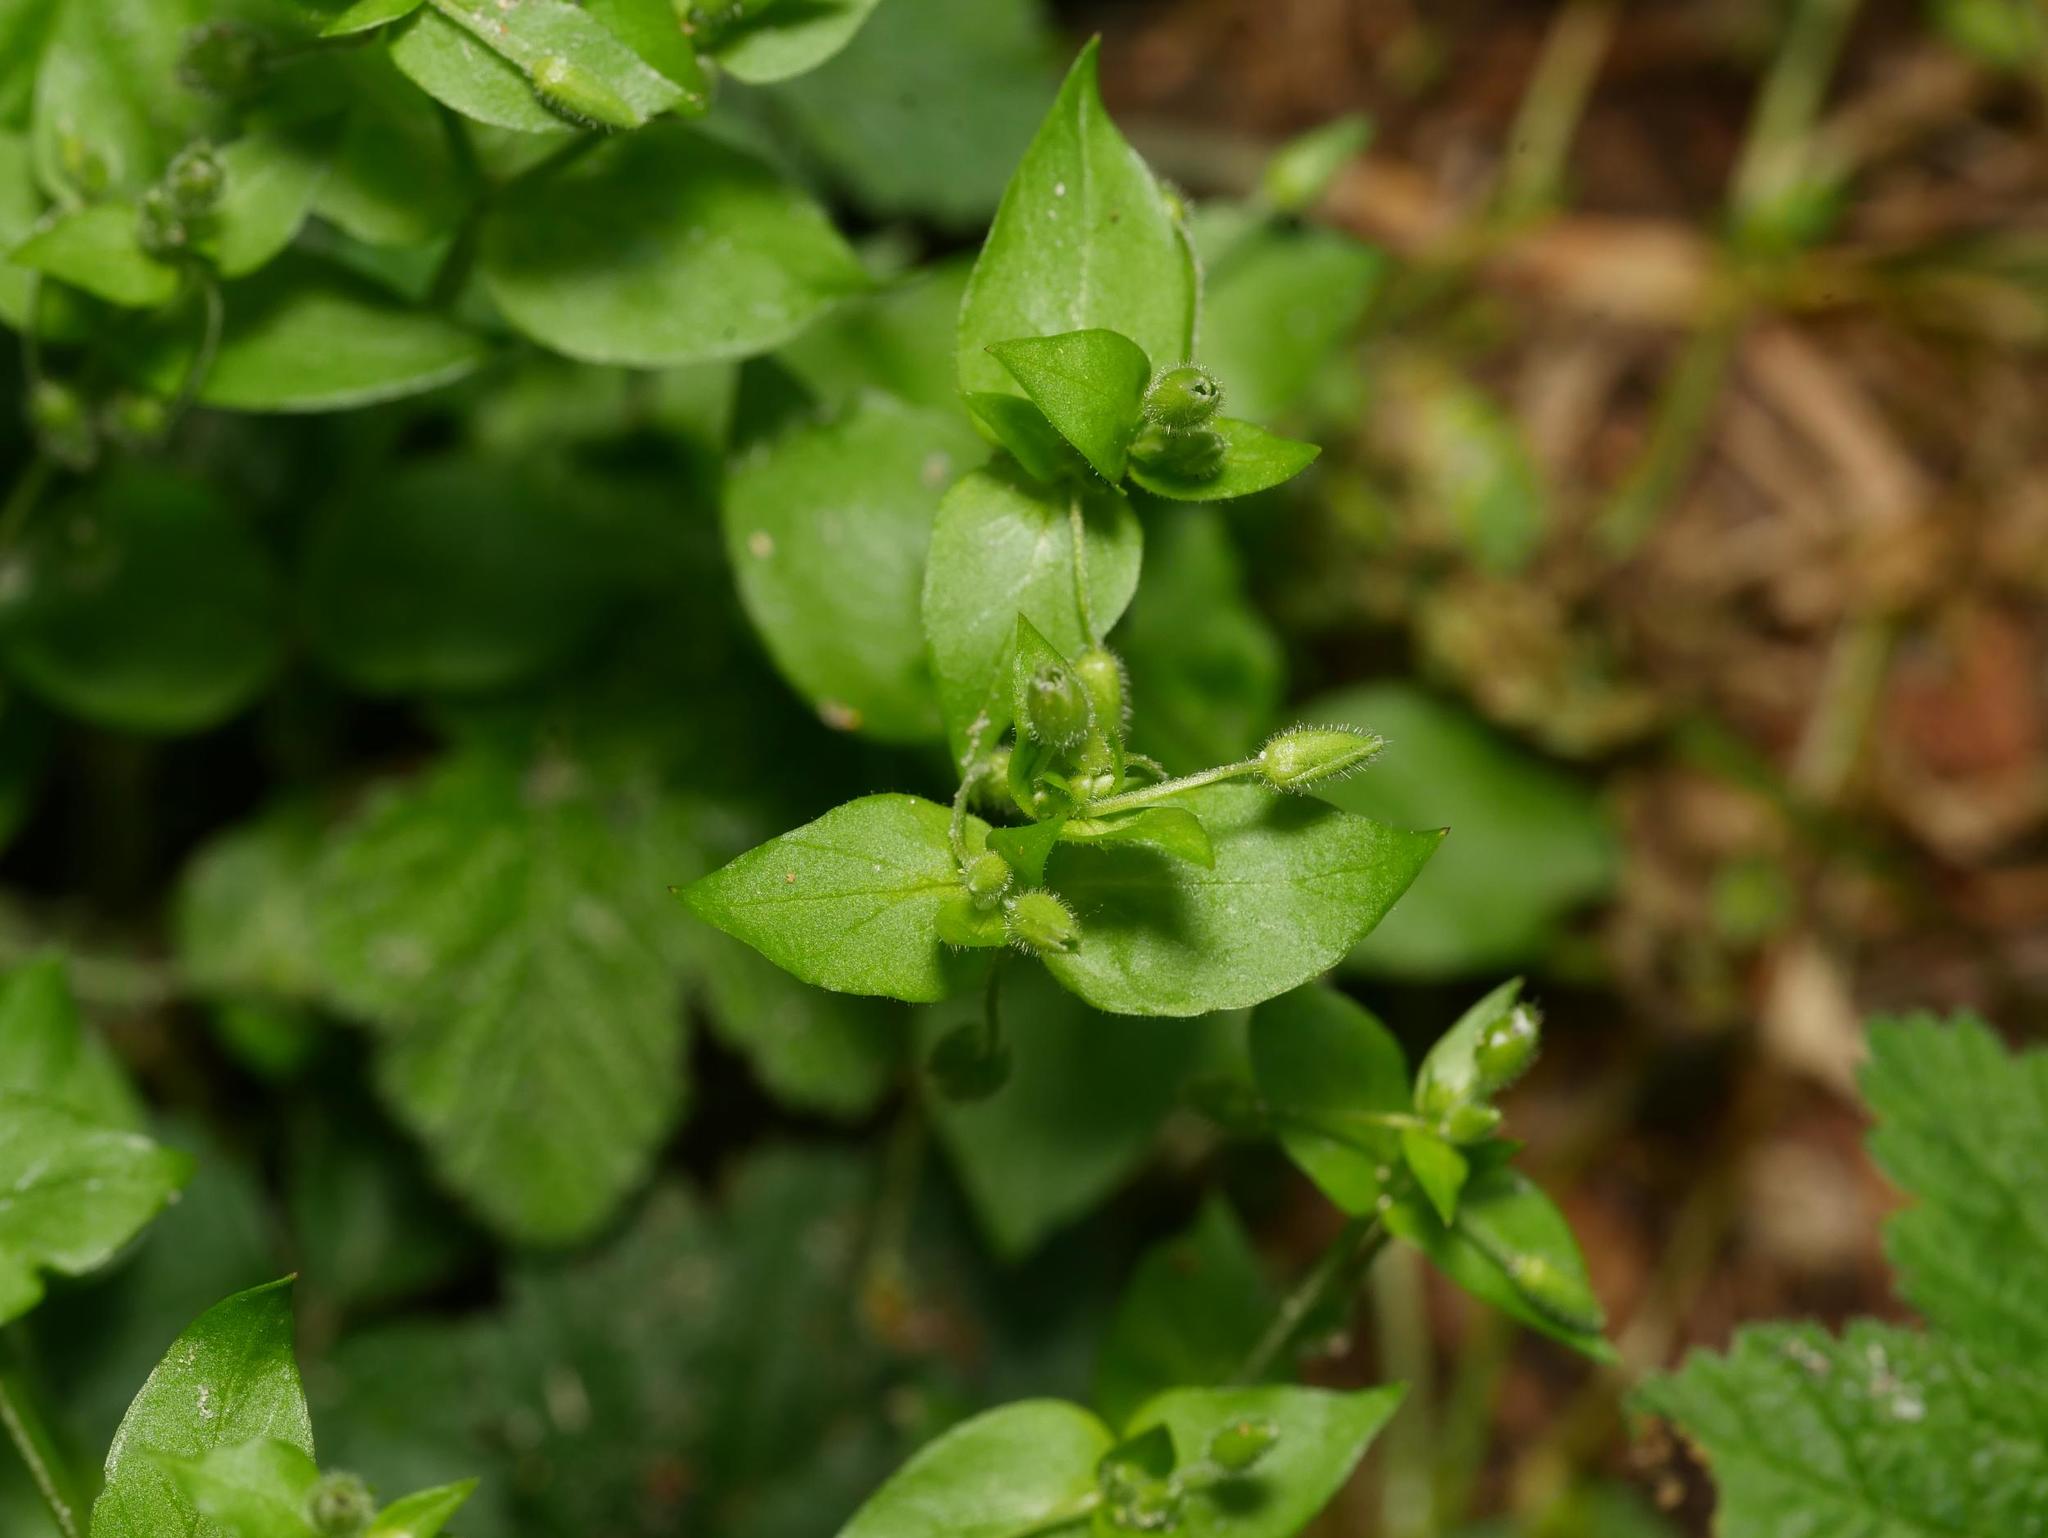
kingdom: Plantae
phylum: Tracheophyta
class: Magnoliopsida
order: Caryophyllales
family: Caryophyllaceae
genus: Stellaria
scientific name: Stellaria media
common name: Common chickweed
